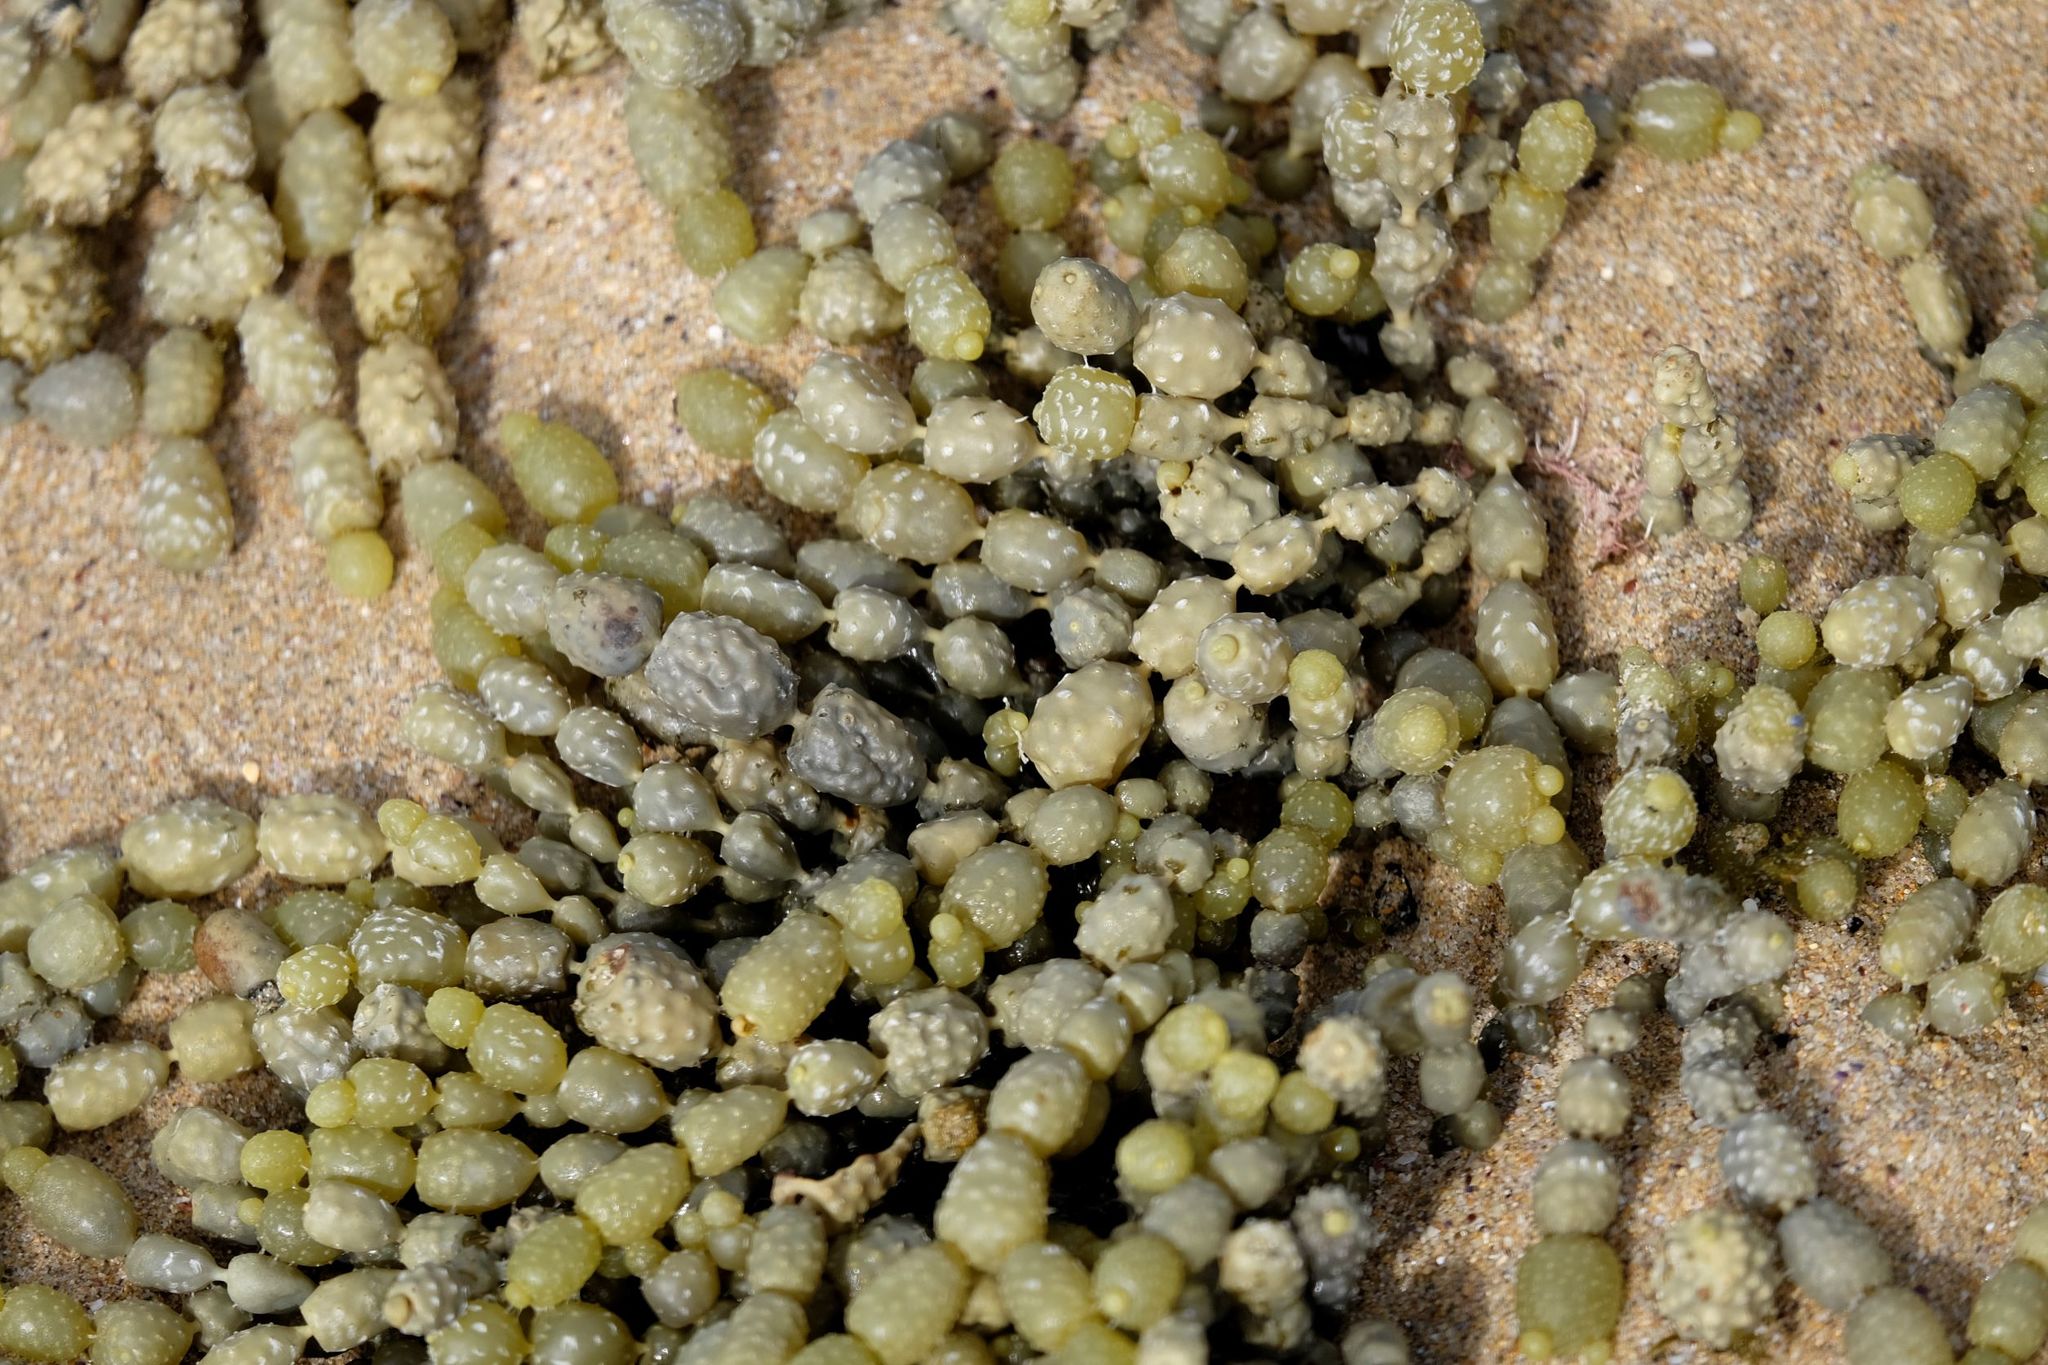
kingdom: Chromista
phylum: Ochrophyta
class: Phaeophyceae
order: Fucales
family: Hormosiraceae
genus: Hormosira
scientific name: Hormosira banksii
